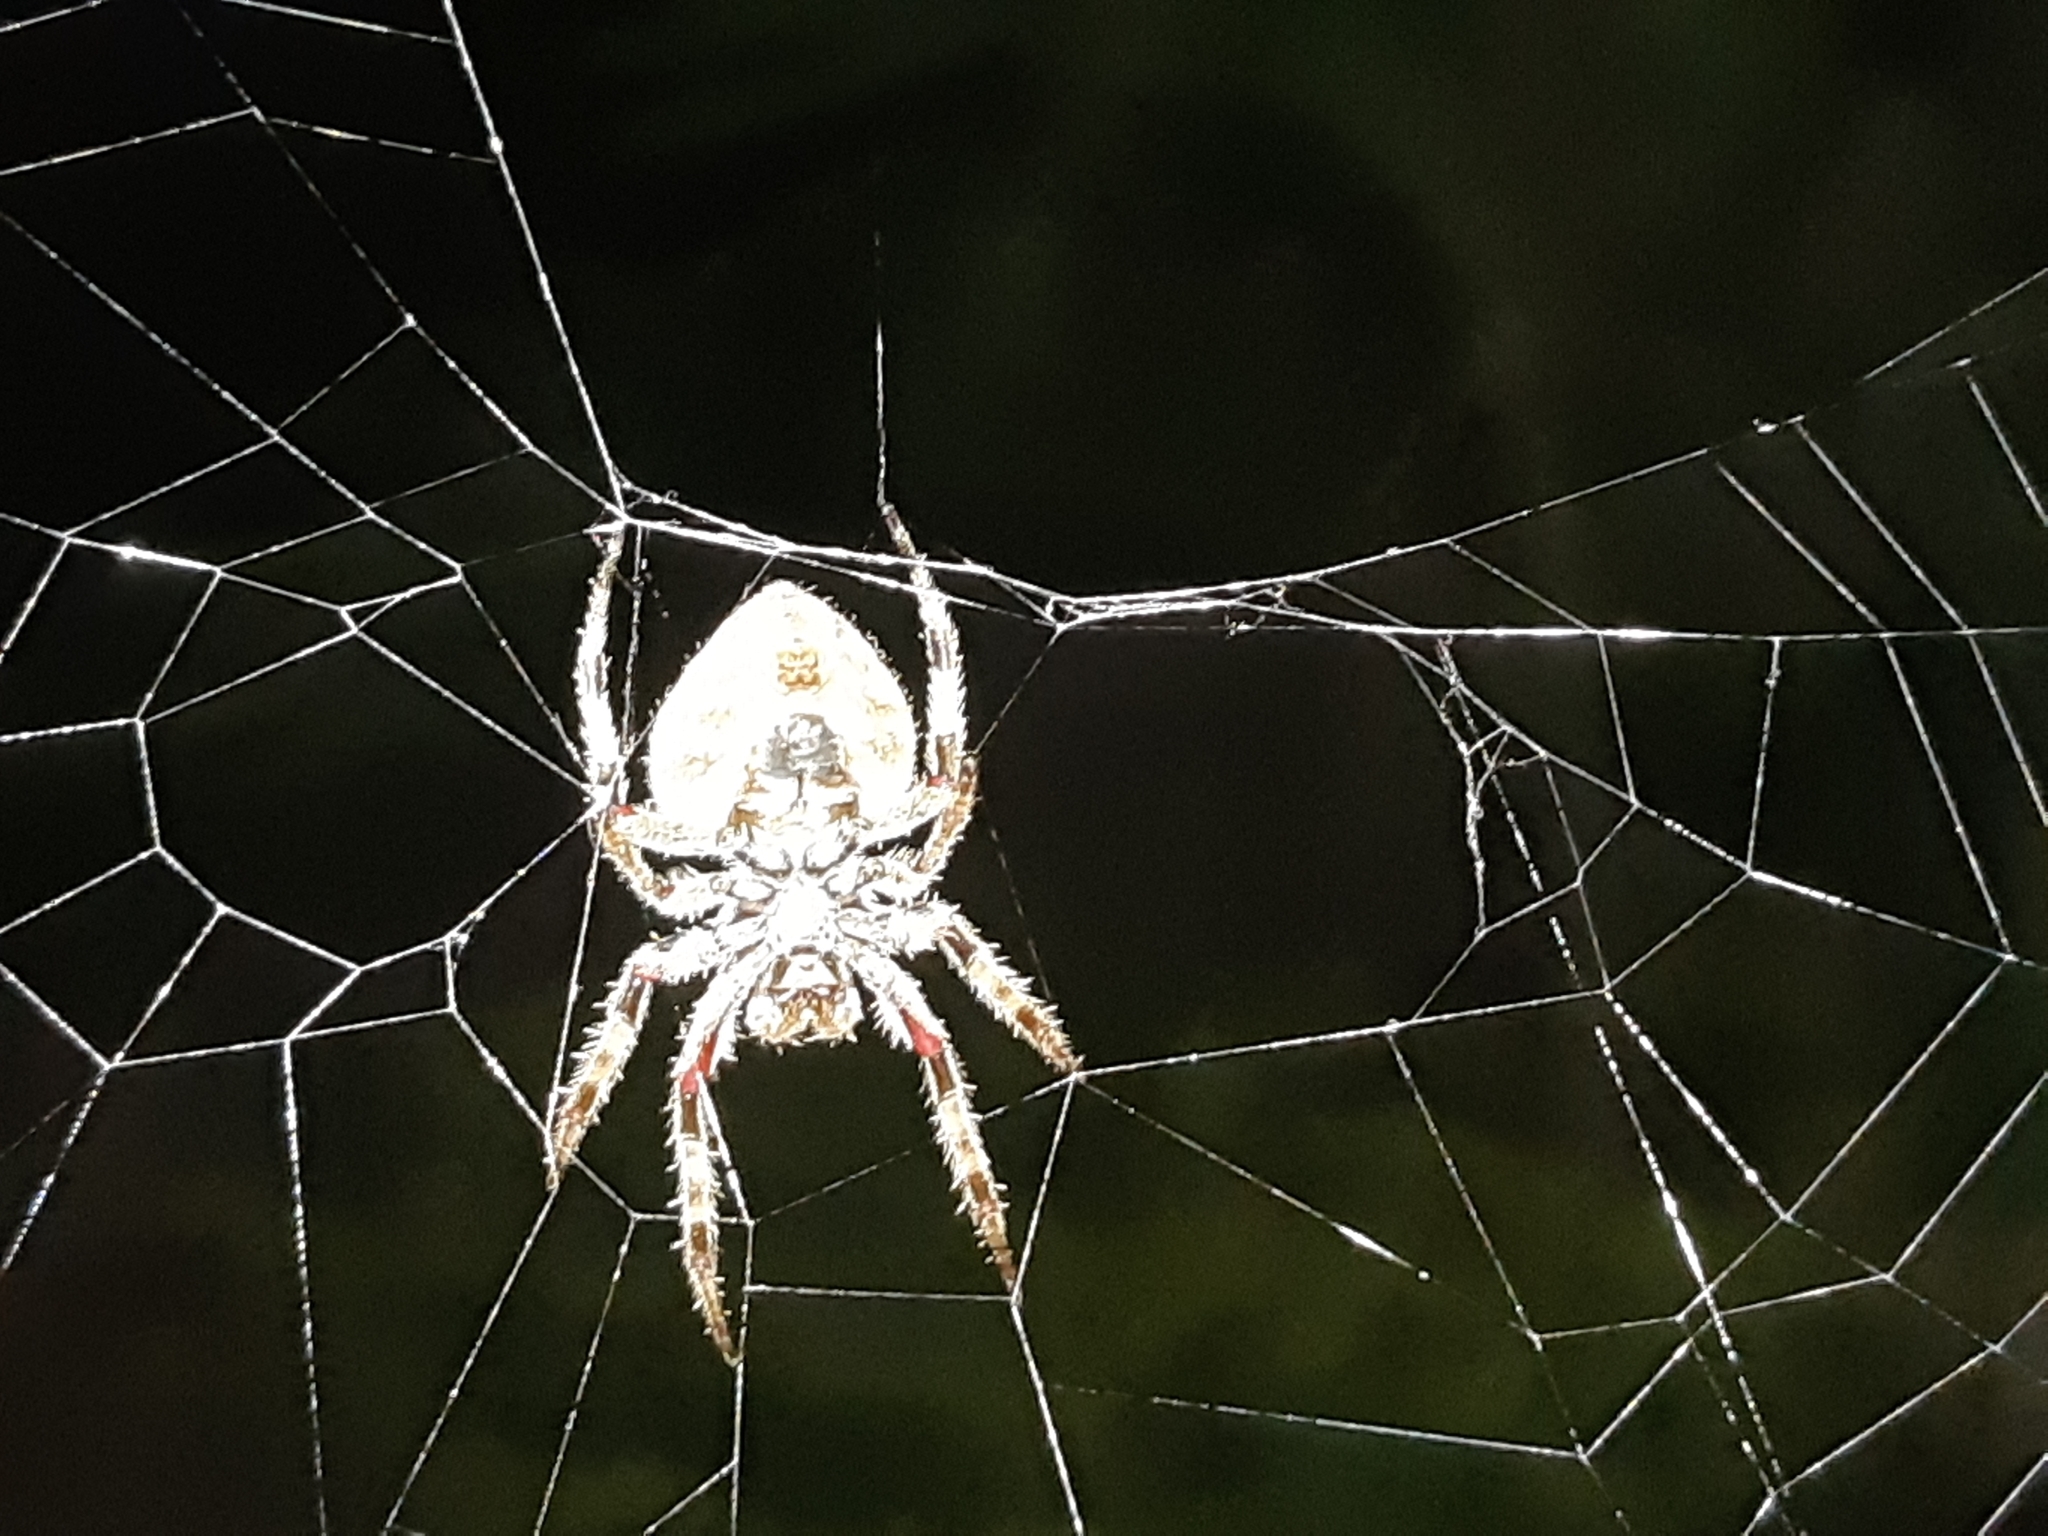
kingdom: Animalia
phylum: Arthropoda
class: Arachnida
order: Araneae
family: Araneidae
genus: Eriophora
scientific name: Eriophora edax
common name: Orb weavers
